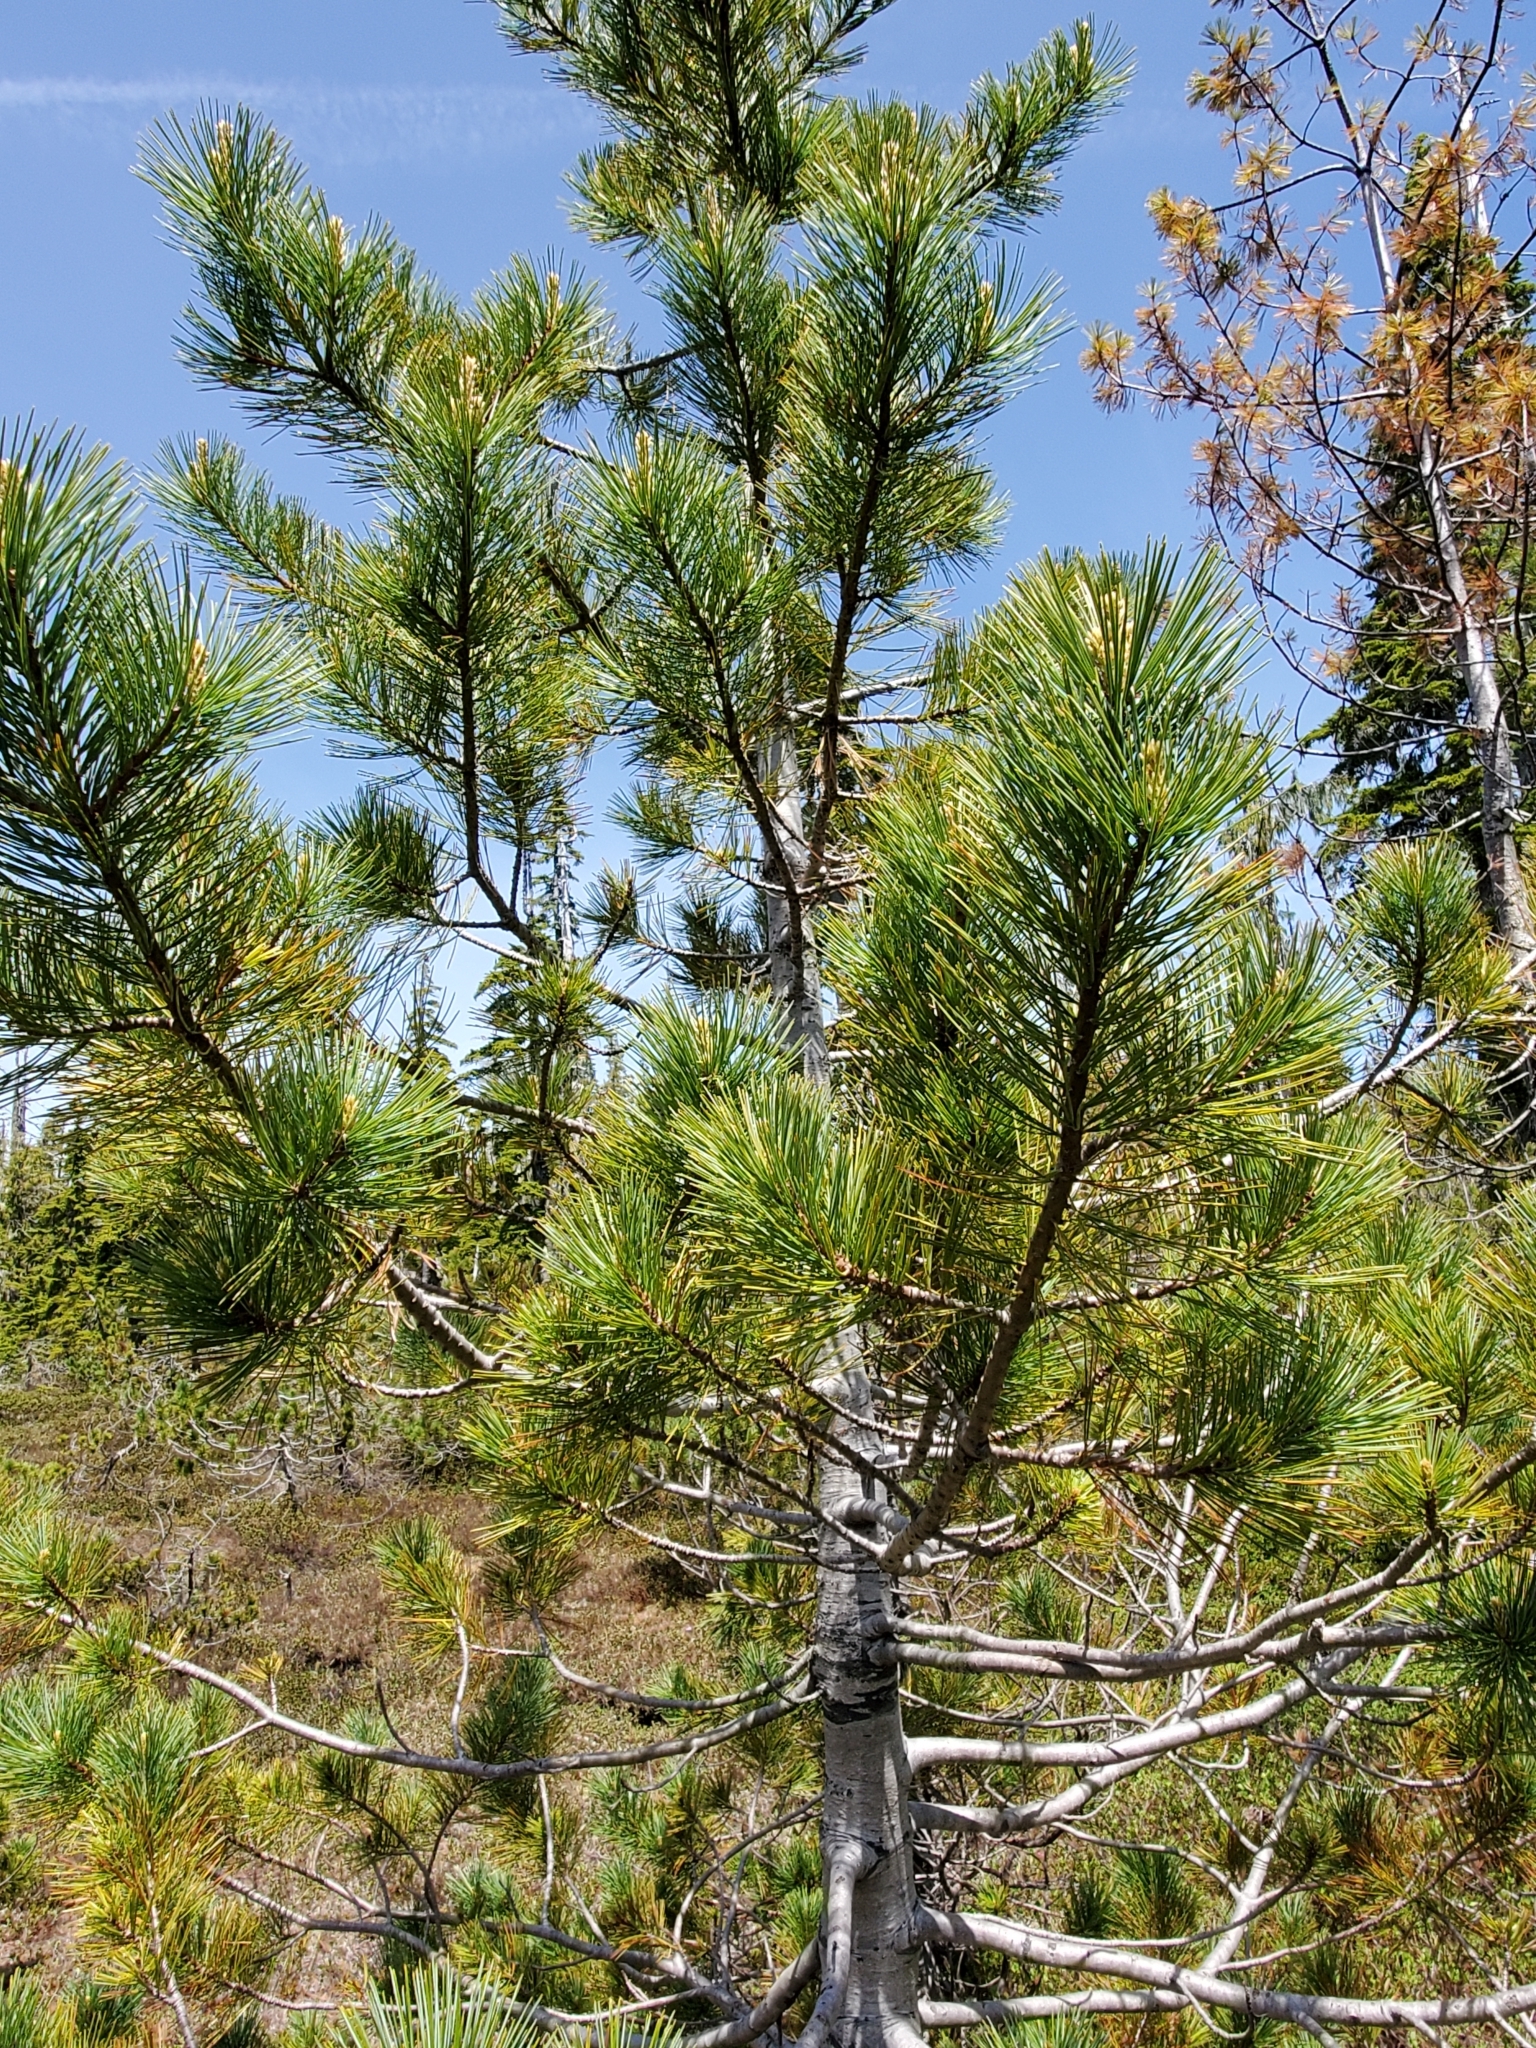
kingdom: Plantae
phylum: Tracheophyta
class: Pinopsida
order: Pinales
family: Pinaceae
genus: Pinus
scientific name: Pinus monticola
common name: Western white pine
